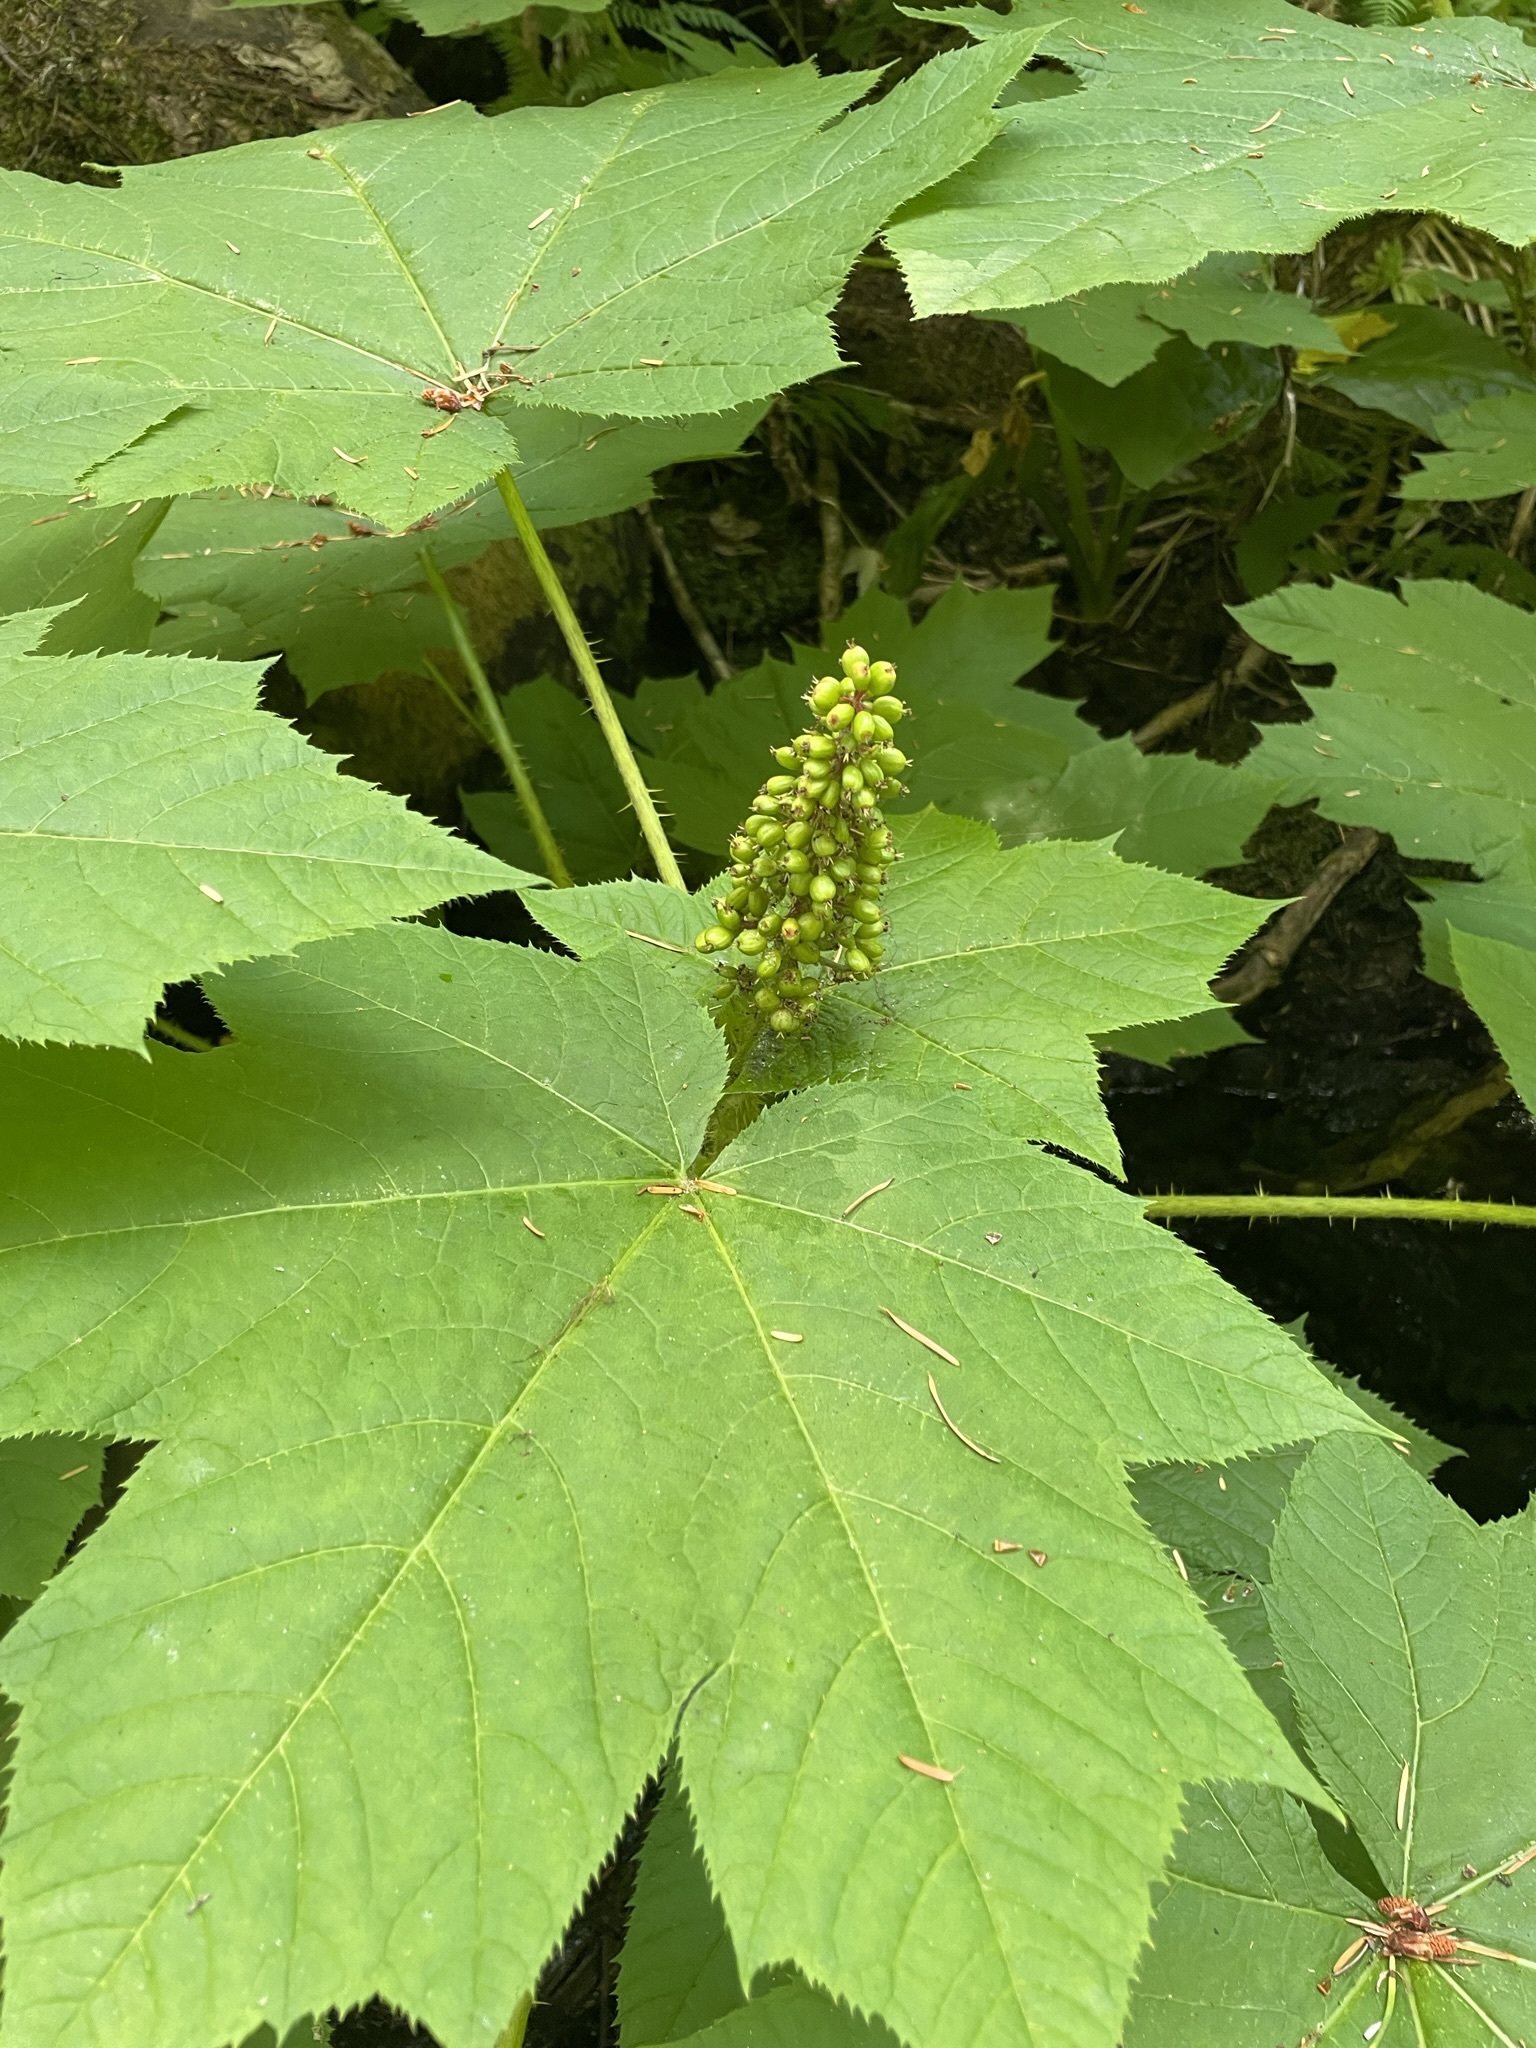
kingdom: Plantae
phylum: Tracheophyta
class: Magnoliopsida
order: Apiales
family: Araliaceae
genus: Oplopanax
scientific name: Oplopanax horridus
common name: Devil's walking-stick
